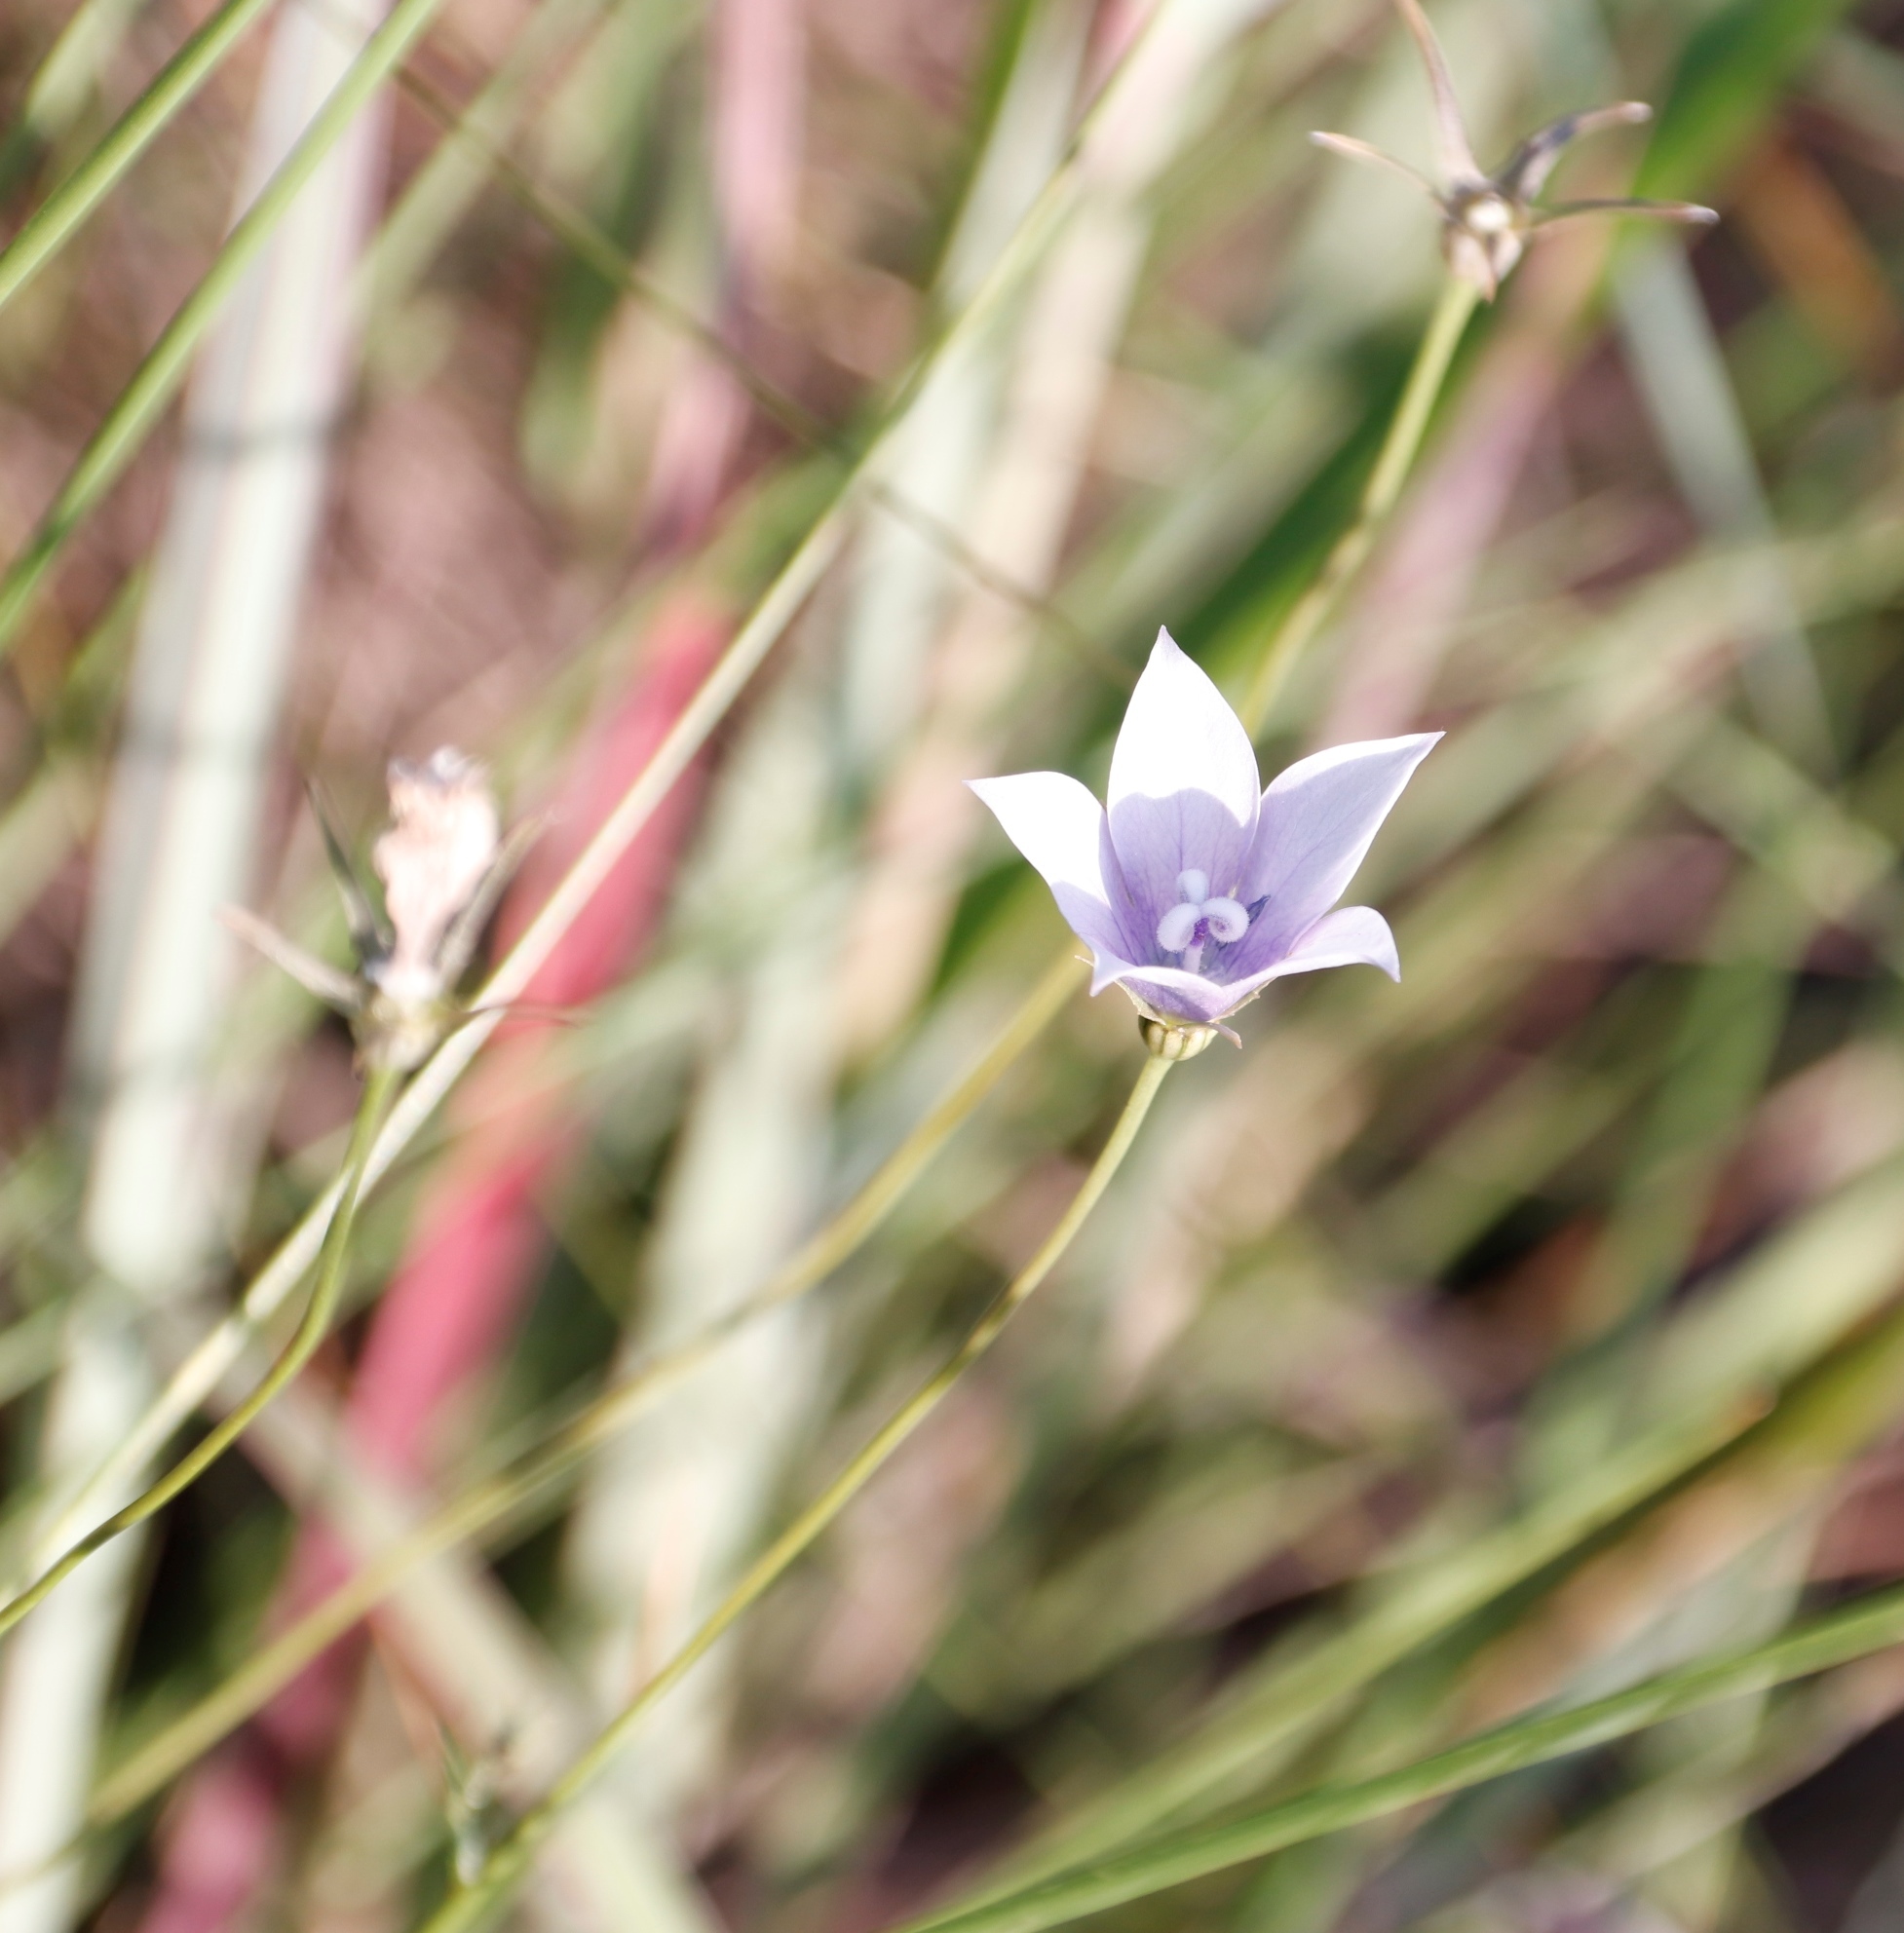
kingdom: Plantae
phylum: Tracheophyta
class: Magnoliopsida
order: Asterales
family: Campanulaceae
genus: Wahlenbergia
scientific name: Wahlenbergia cuspidata
